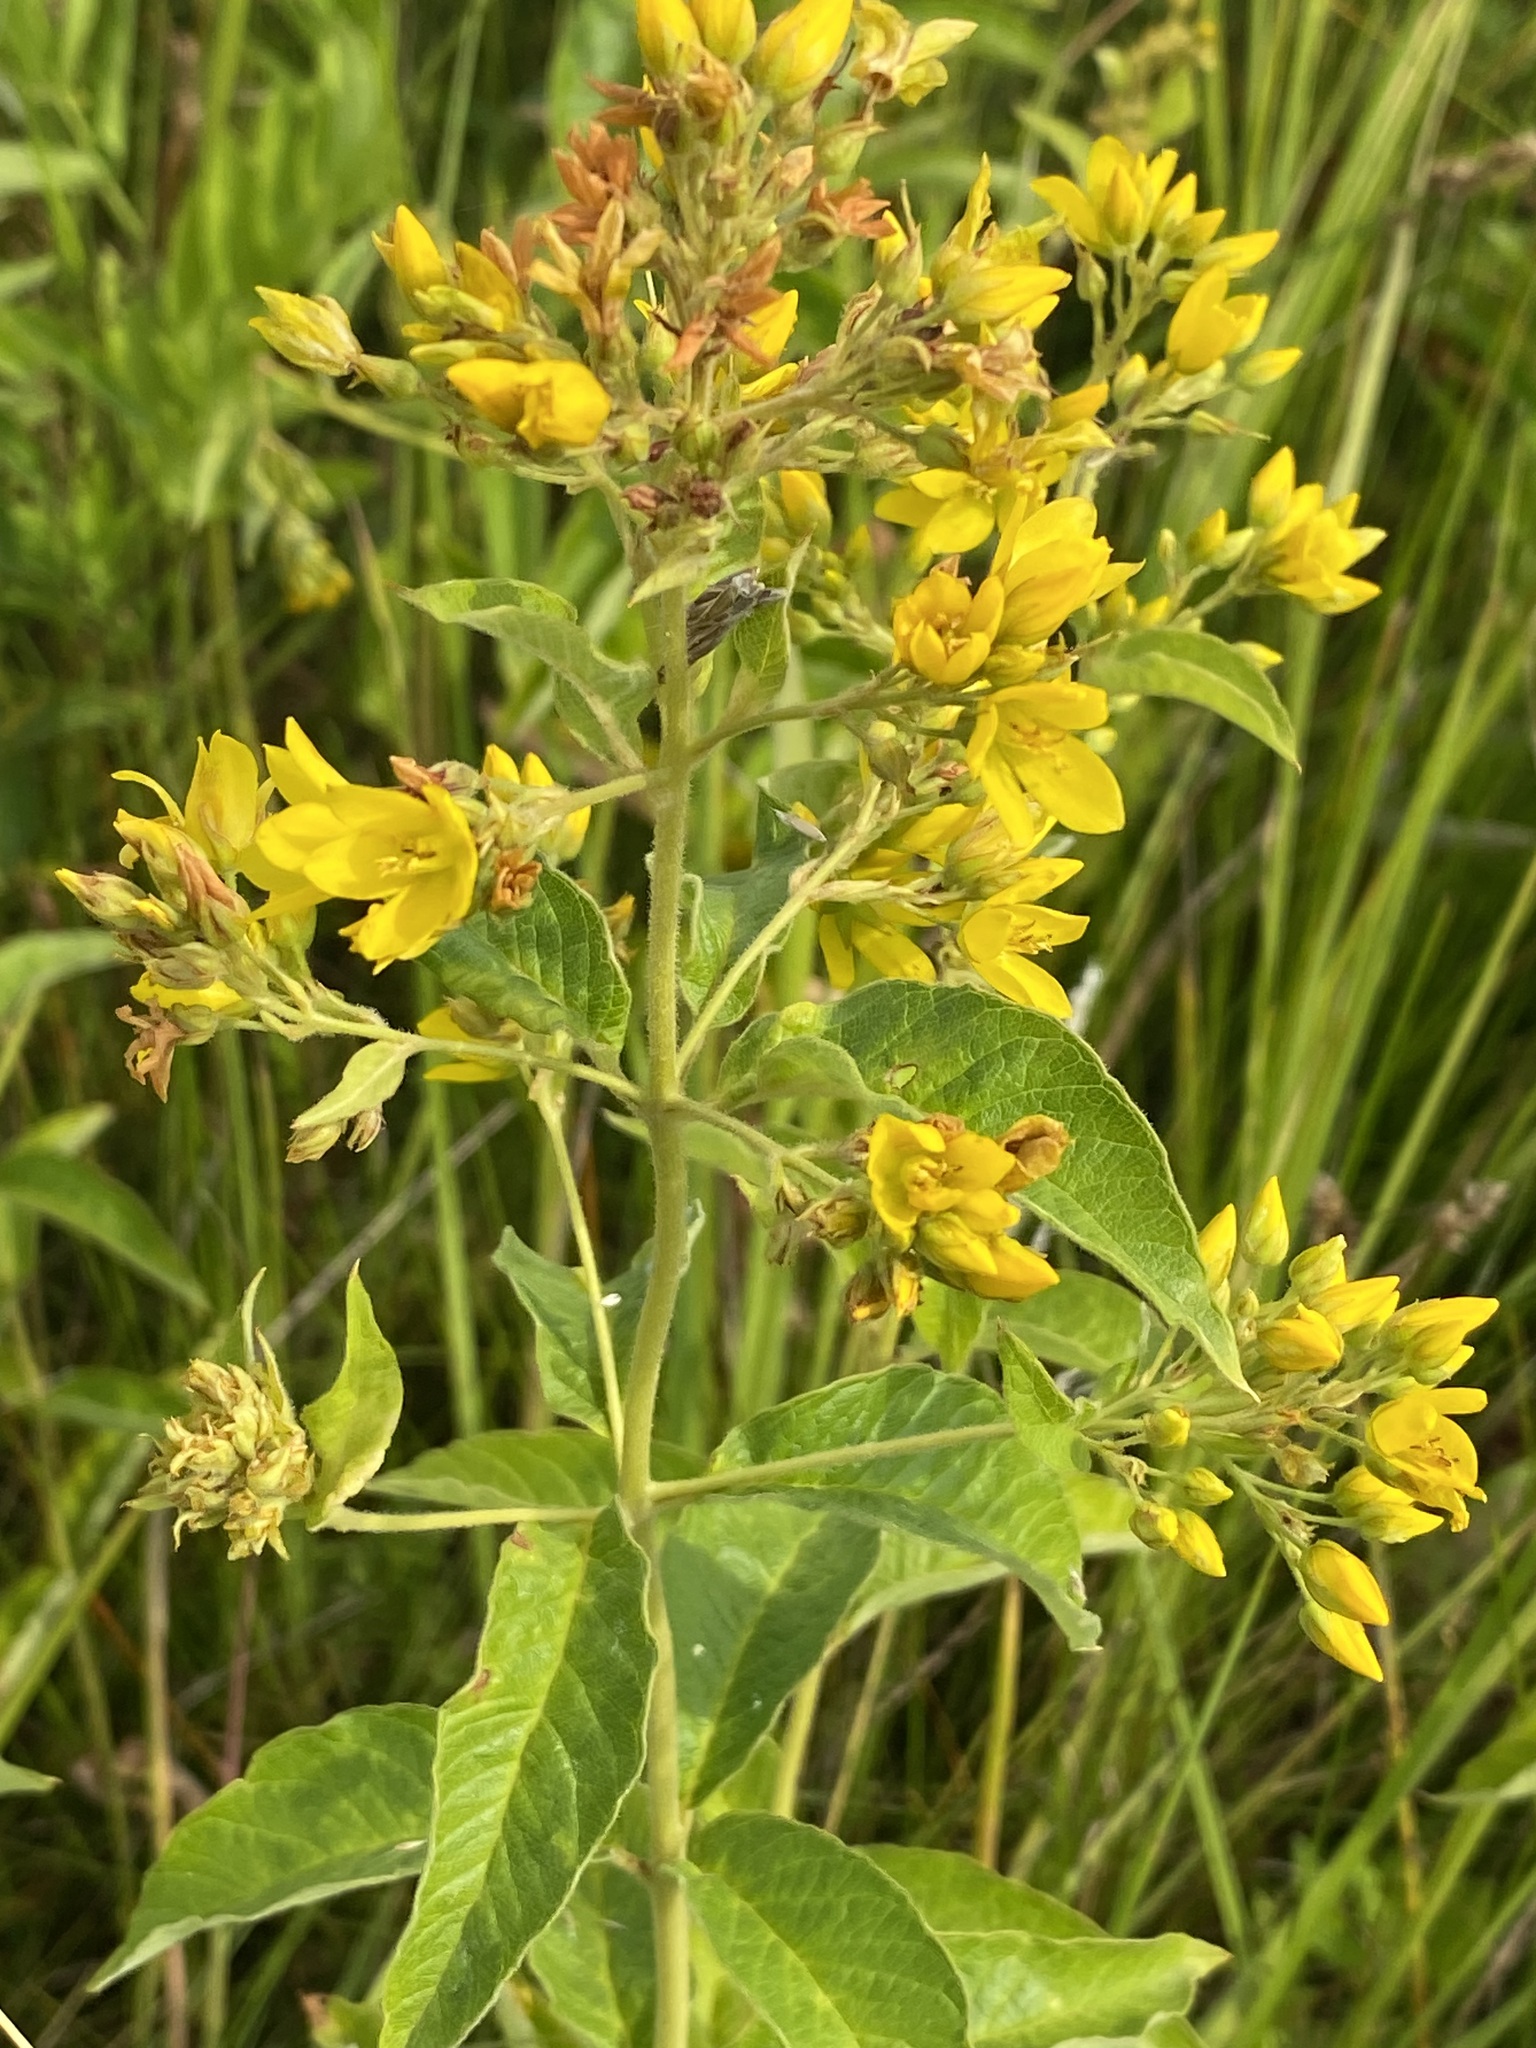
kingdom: Plantae
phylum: Tracheophyta
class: Magnoliopsida
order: Ericales
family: Primulaceae
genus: Lysimachia
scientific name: Lysimachia vulgaris
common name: Yellow loosestrife
